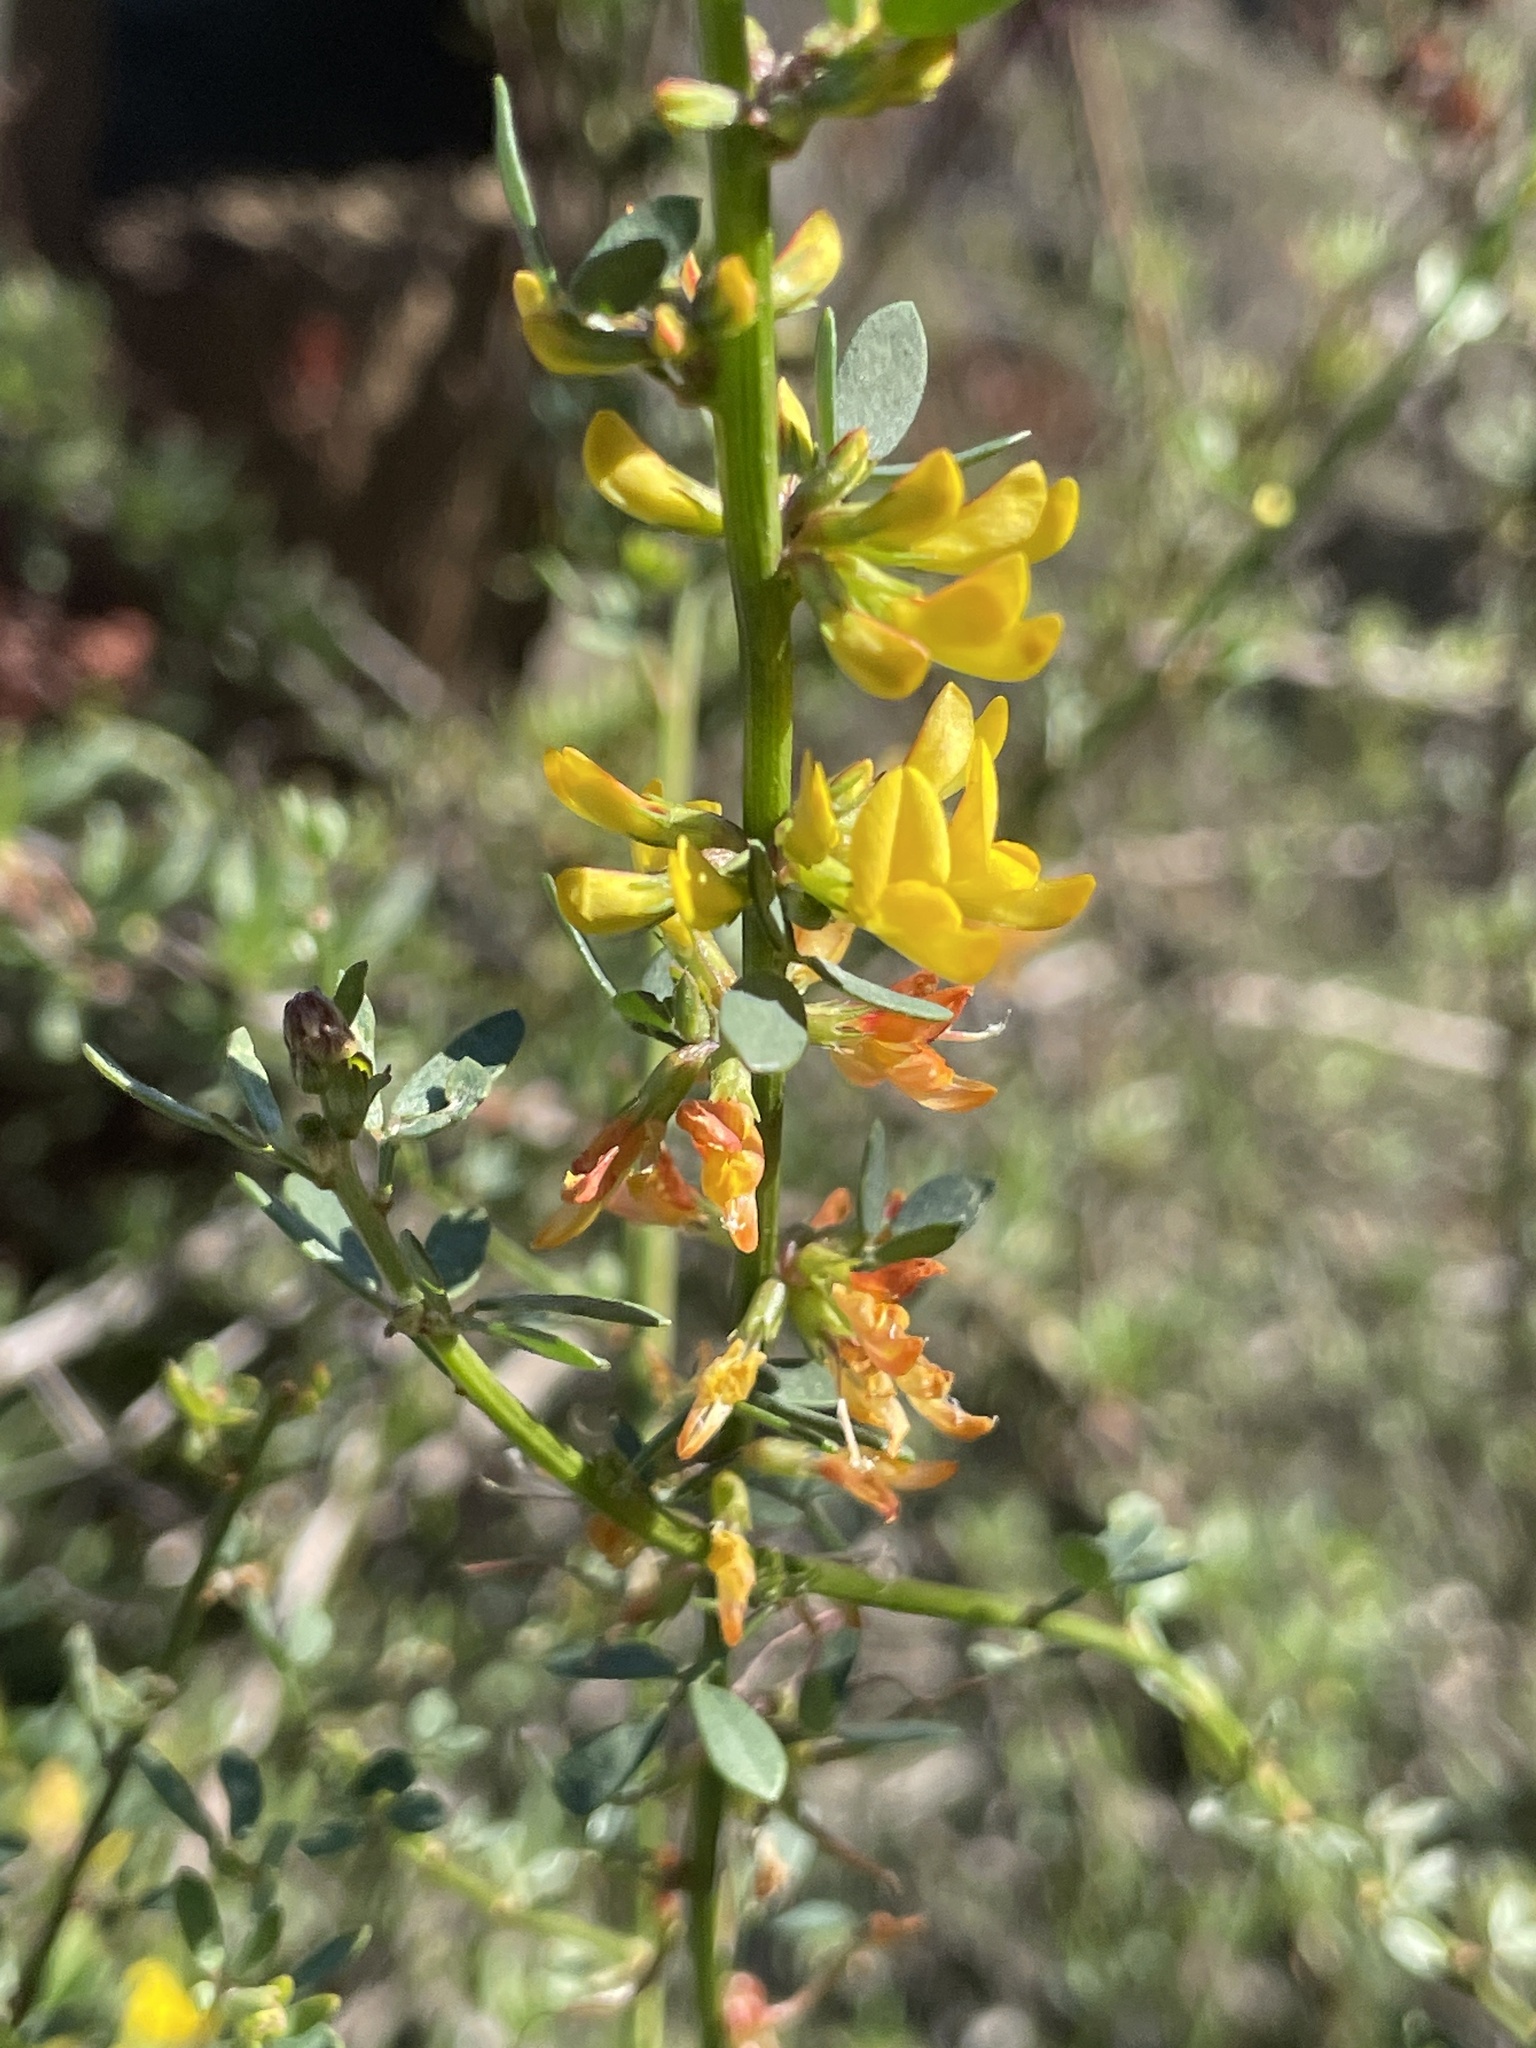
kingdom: Plantae
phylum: Tracheophyta
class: Magnoliopsida
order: Fabales
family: Fabaceae
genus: Acmispon
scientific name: Acmispon glaber
